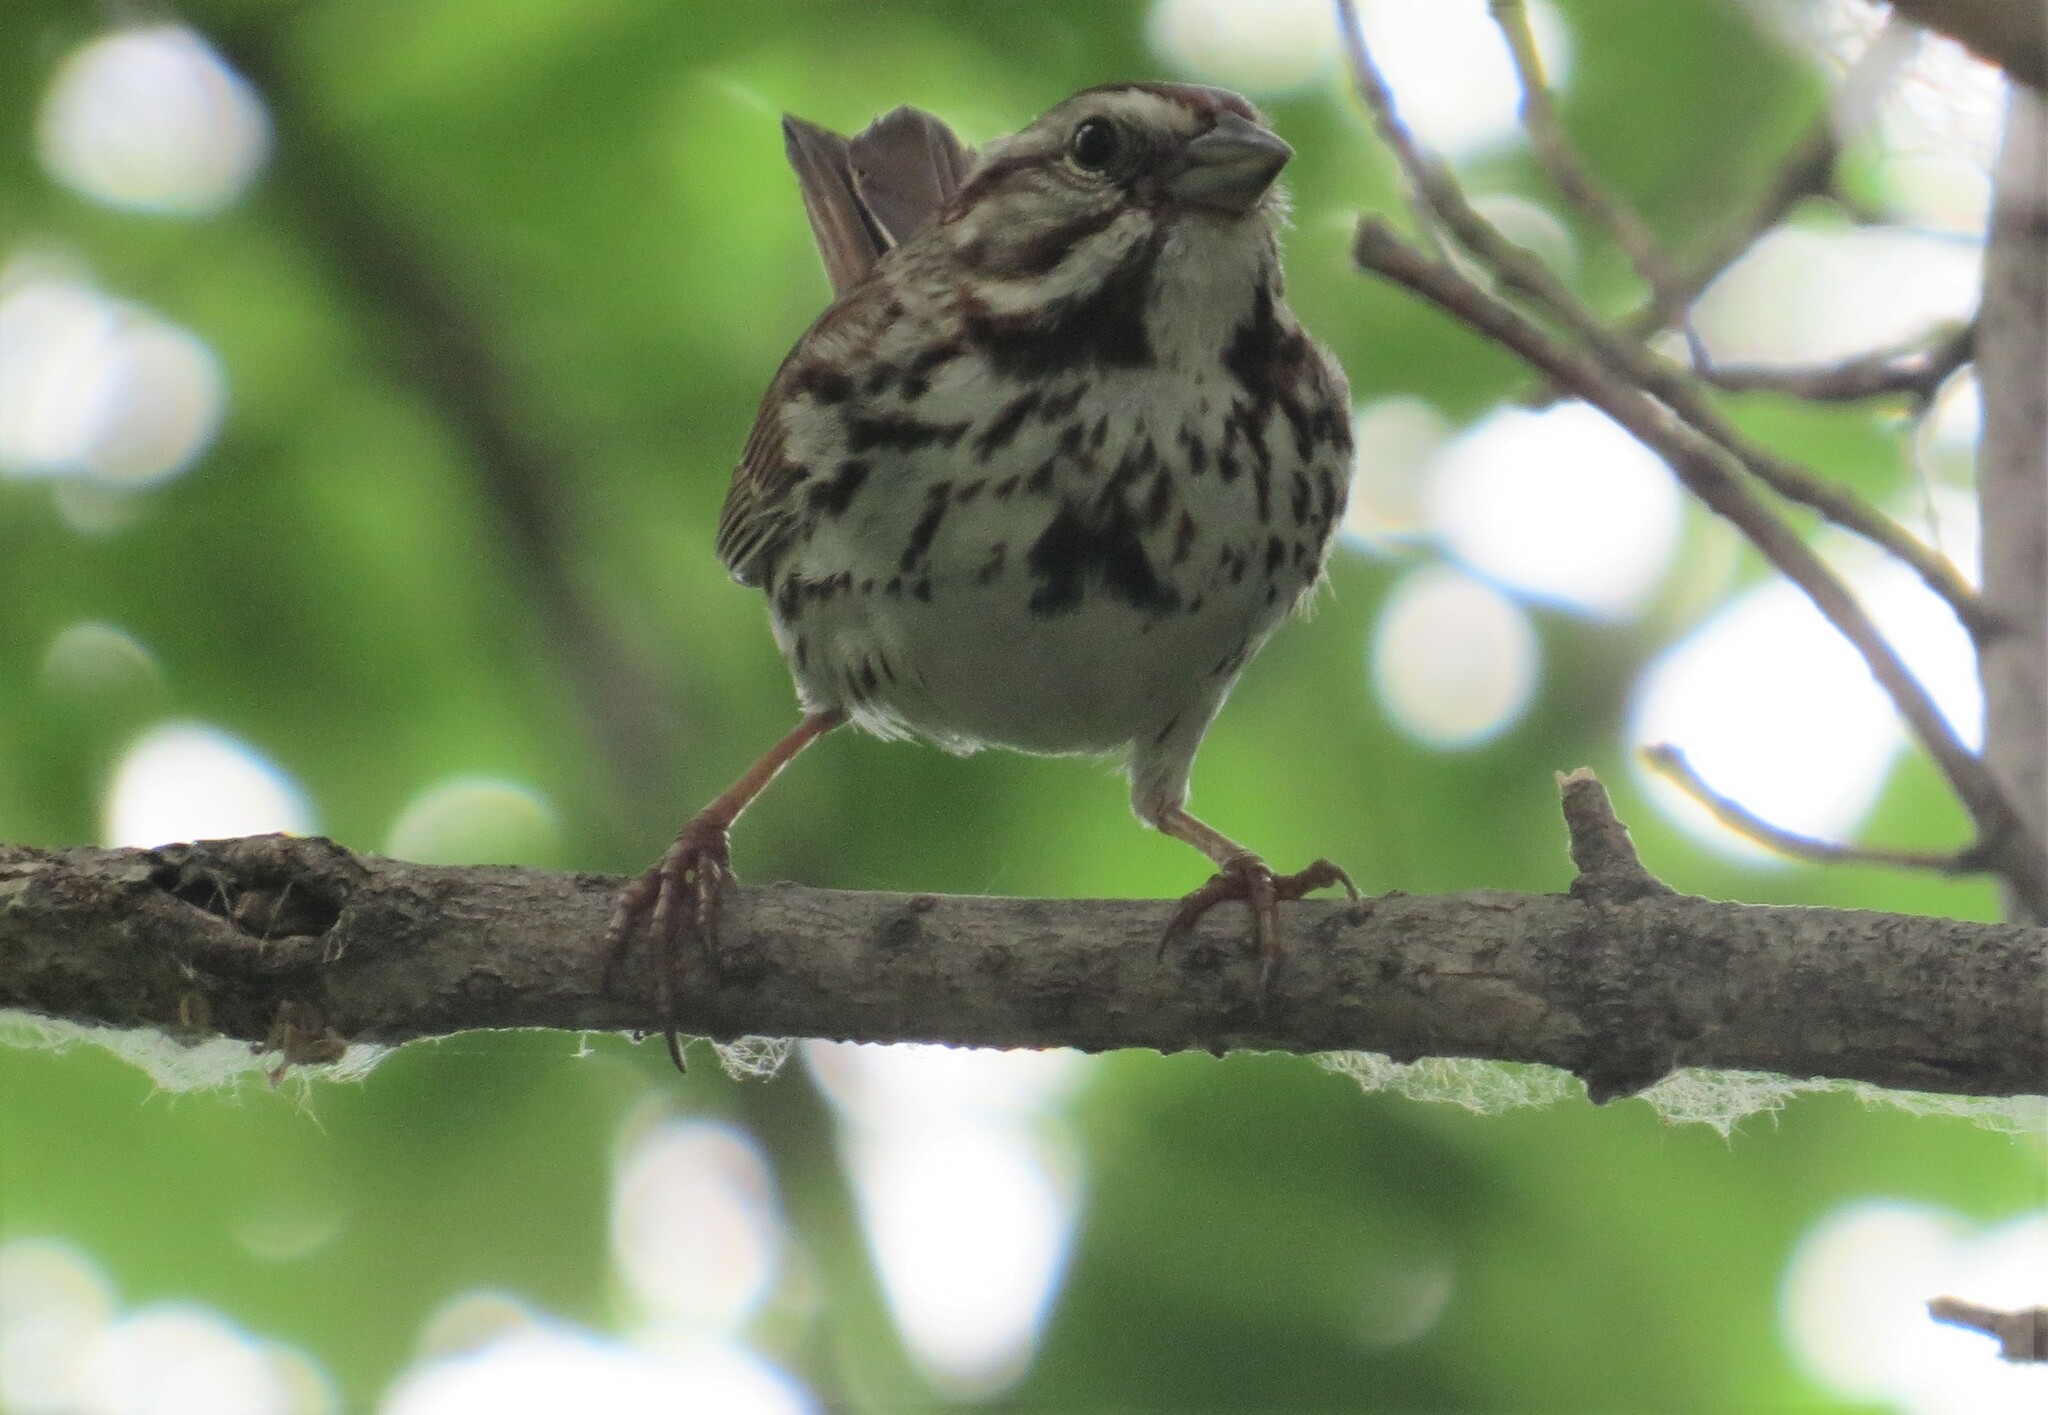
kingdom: Animalia
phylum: Chordata
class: Aves
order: Passeriformes
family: Passerellidae
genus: Melospiza
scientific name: Melospiza melodia
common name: Song sparrow
